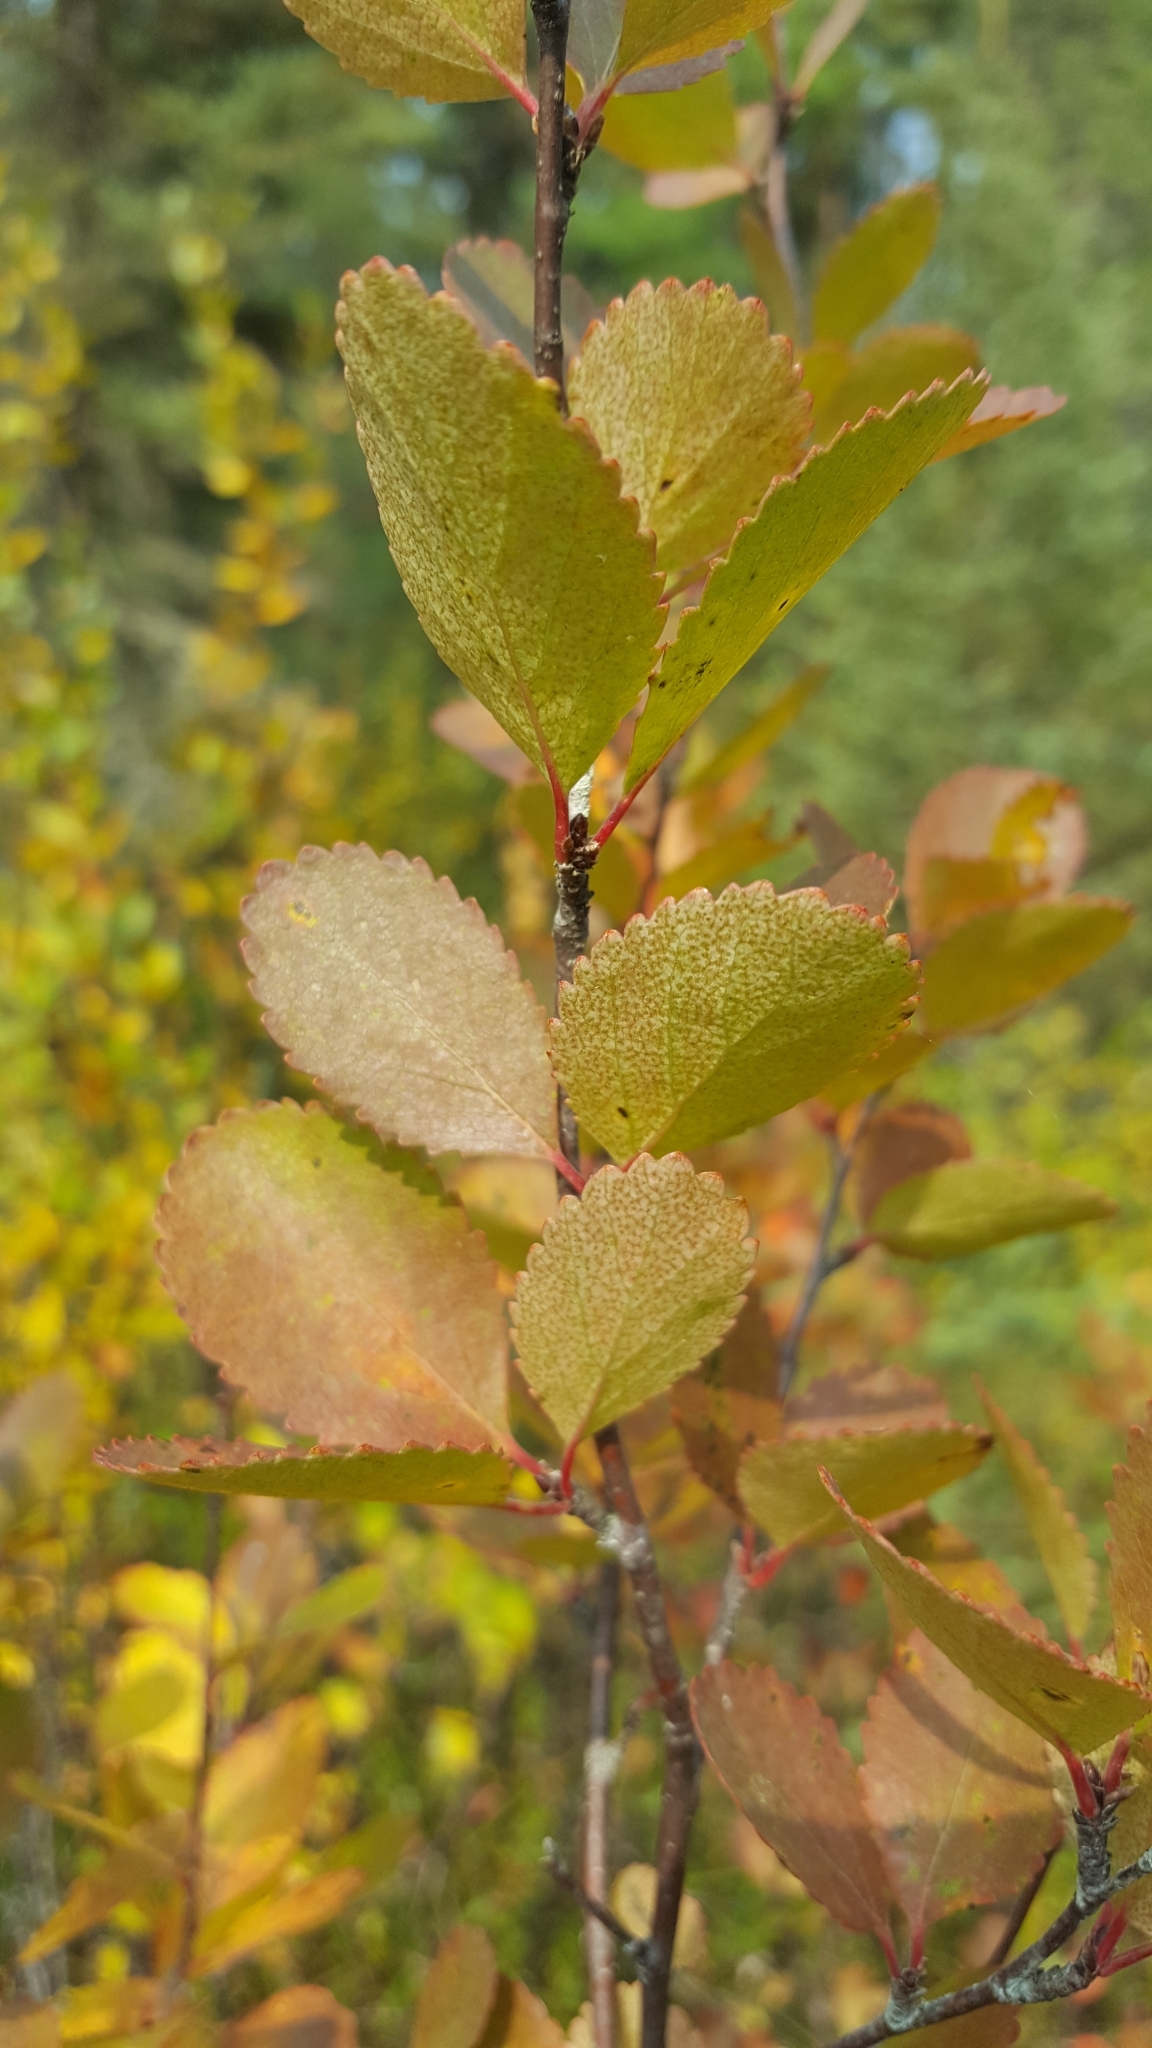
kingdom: Plantae
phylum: Tracheophyta
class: Magnoliopsida
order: Fagales
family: Betulaceae
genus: Betula
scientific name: Betula pumila
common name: Bog birch
